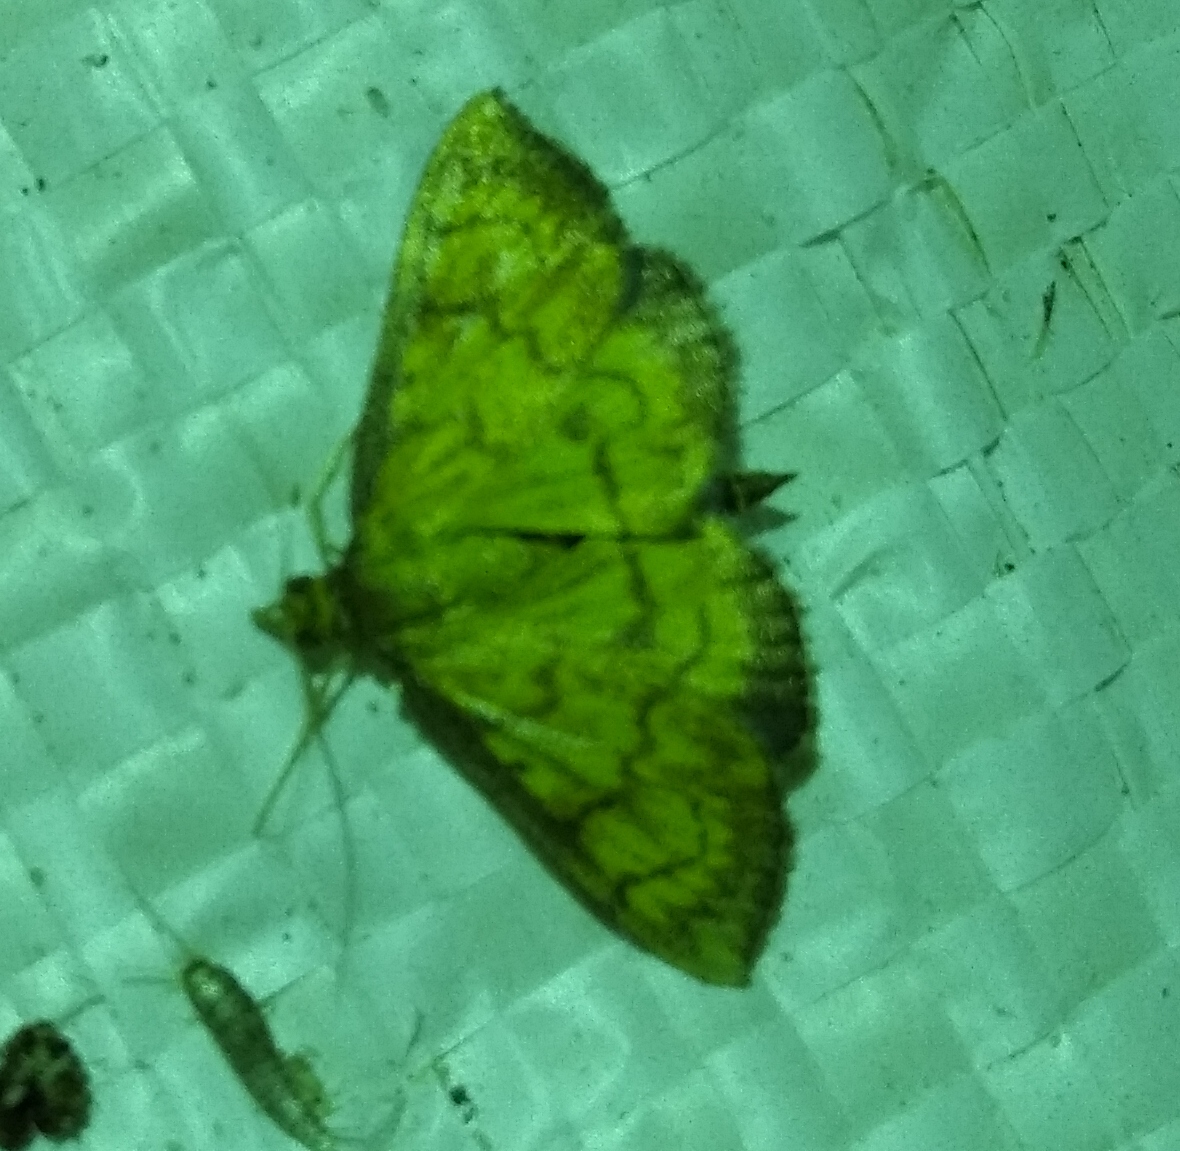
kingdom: Animalia
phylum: Arthropoda
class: Insecta
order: Lepidoptera
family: Crambidae
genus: Ecpyrrhorrhoe
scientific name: Ecpyrrhorrhoe rubiginalis
